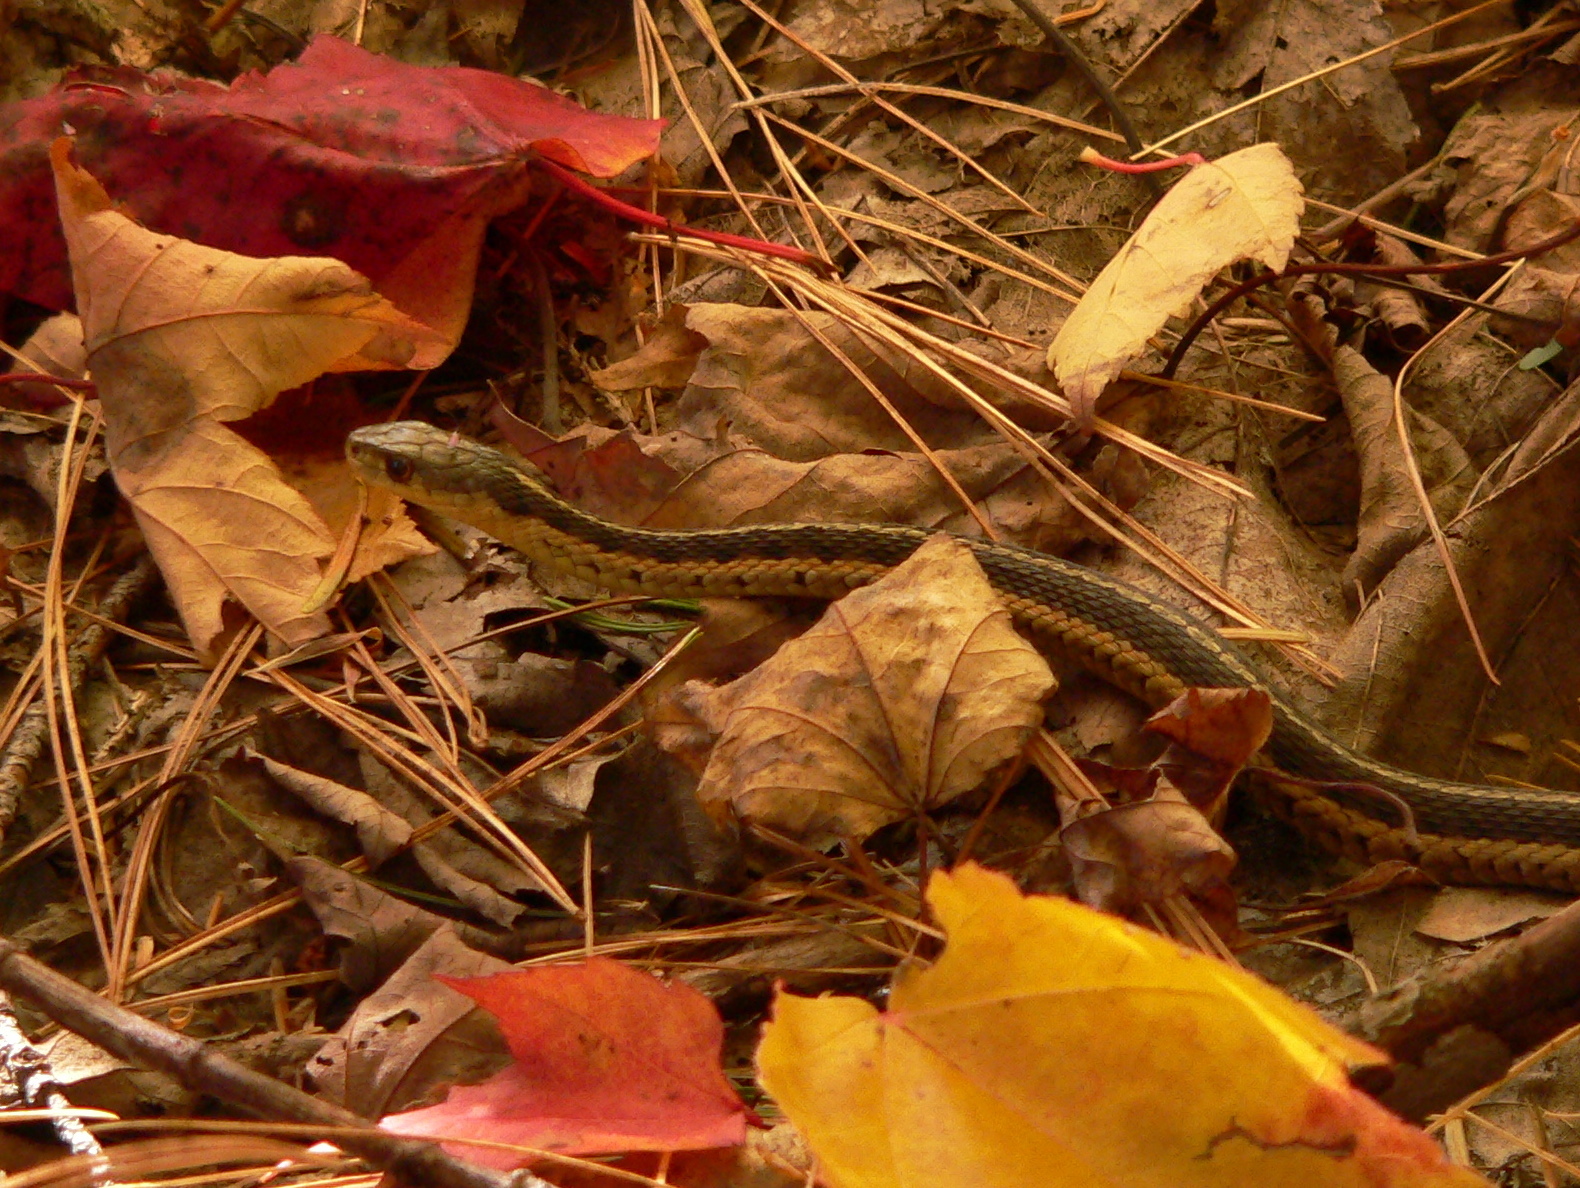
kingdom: Animalia
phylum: Chordata
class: Squamata
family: Colubridae
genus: Thamnophis
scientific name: Thamnophis sirtalis
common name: Common garter snake
